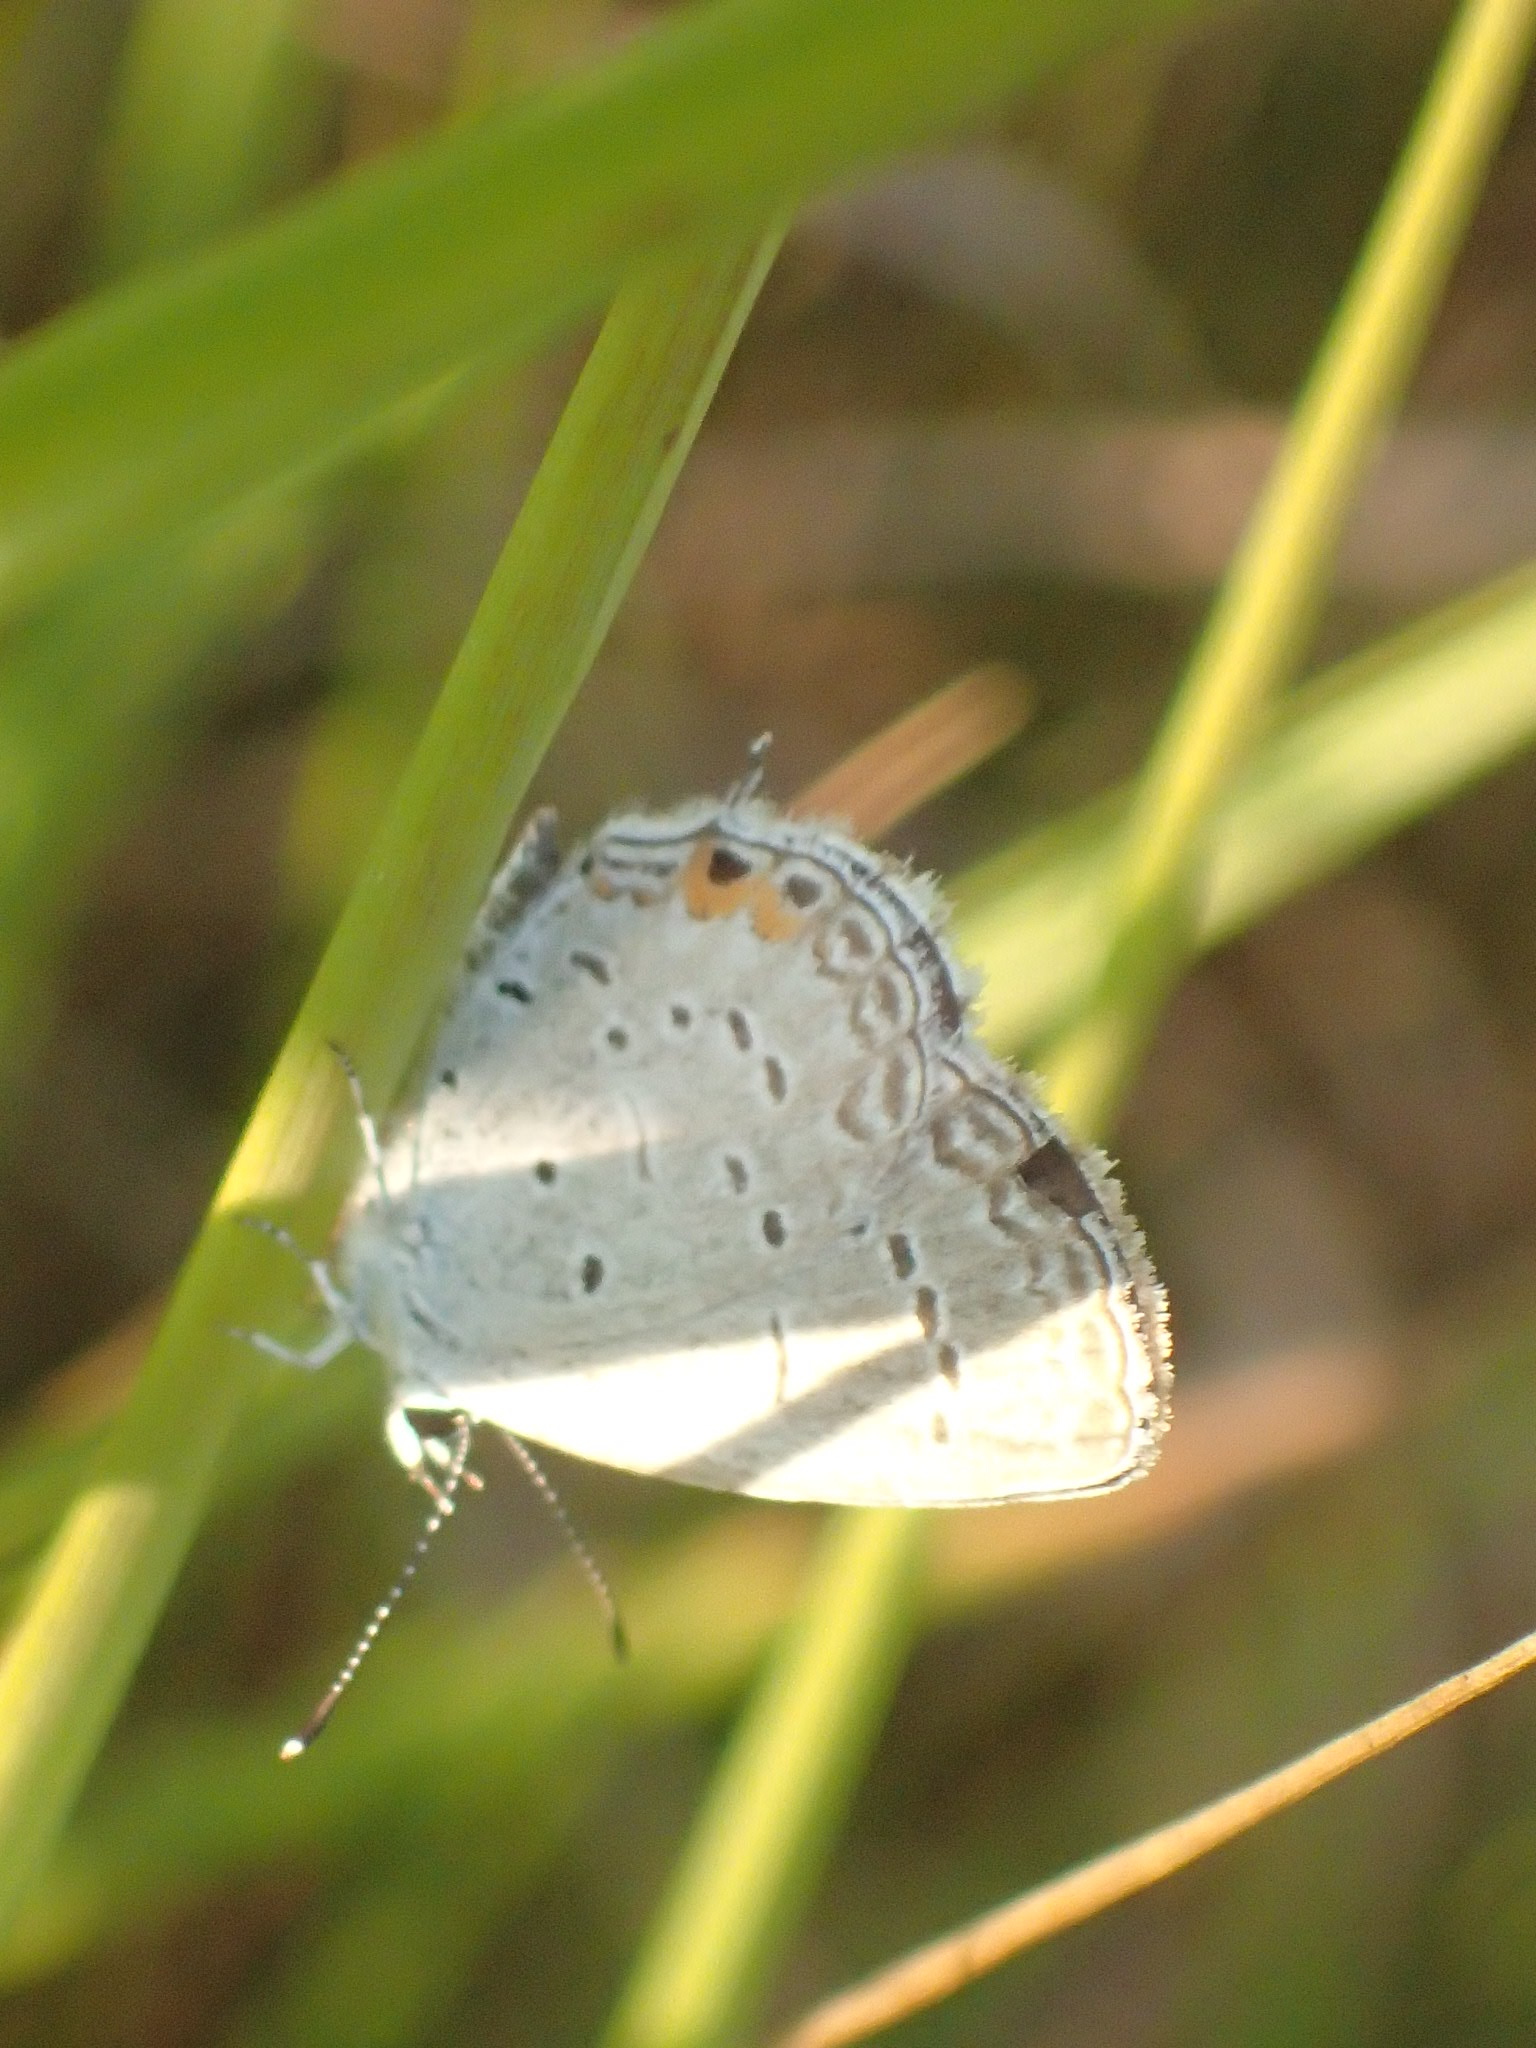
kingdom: Animalia
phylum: Arthropoda
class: Insecta
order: Lepidoptera
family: Lycaenidae
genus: Elkalyce
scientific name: Elkalyce comyntas
